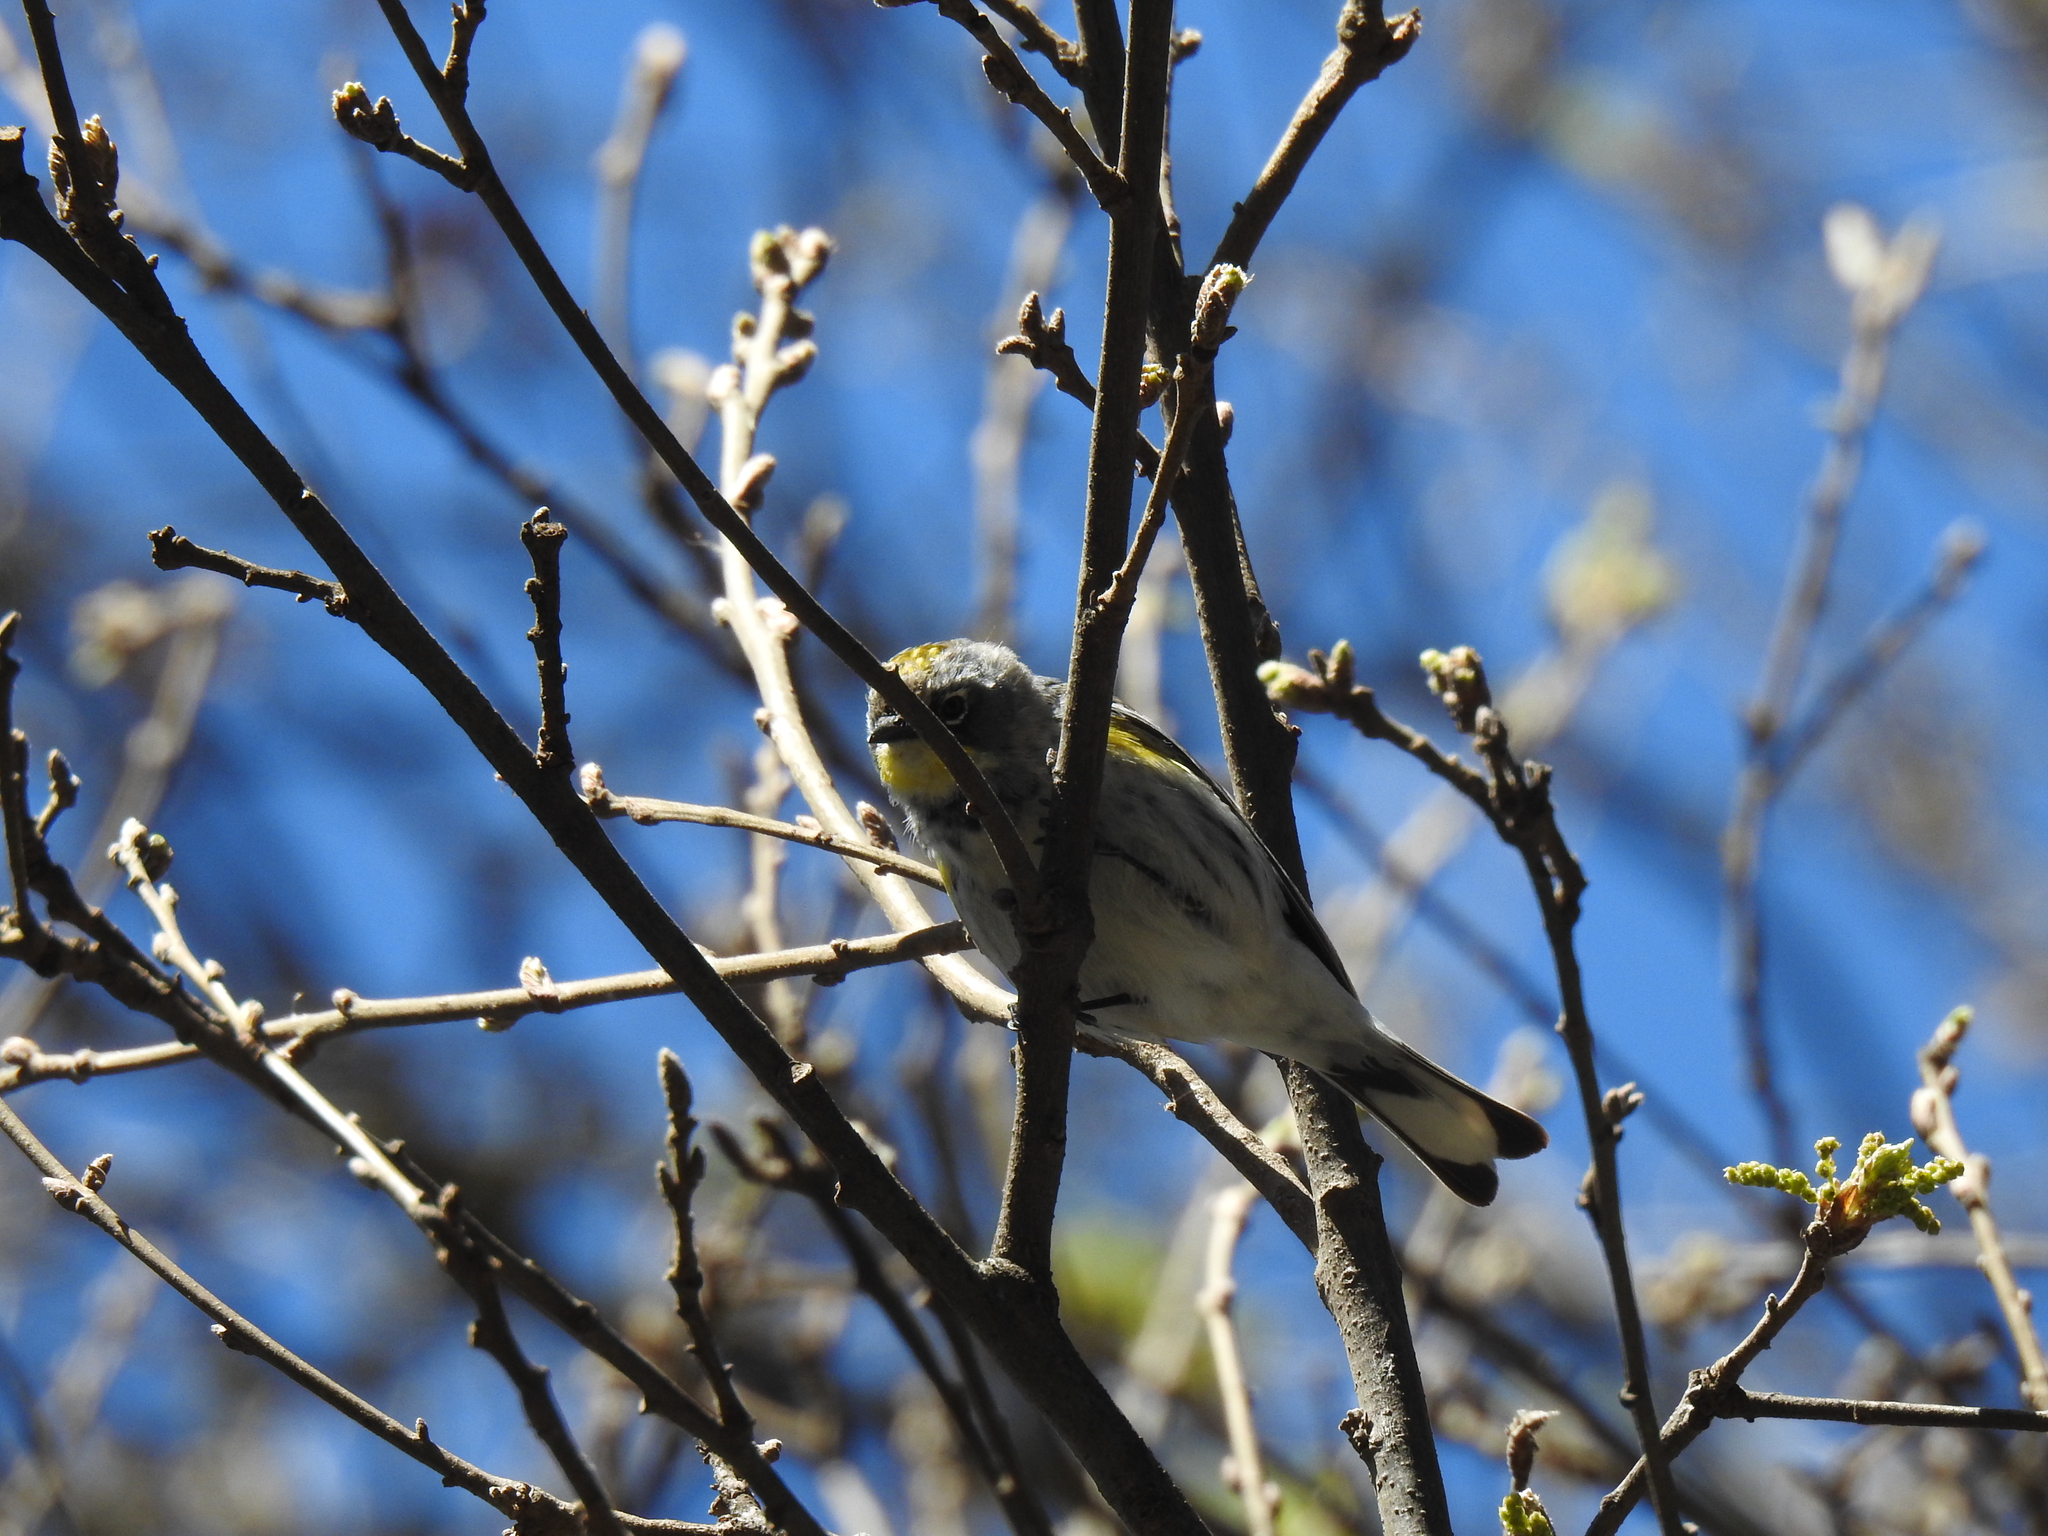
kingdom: Animalia
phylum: Chordata
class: Aves
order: Passeriformes
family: Parulidae
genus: Setophaga
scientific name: Setophaga coronata
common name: Myrtle warbler
